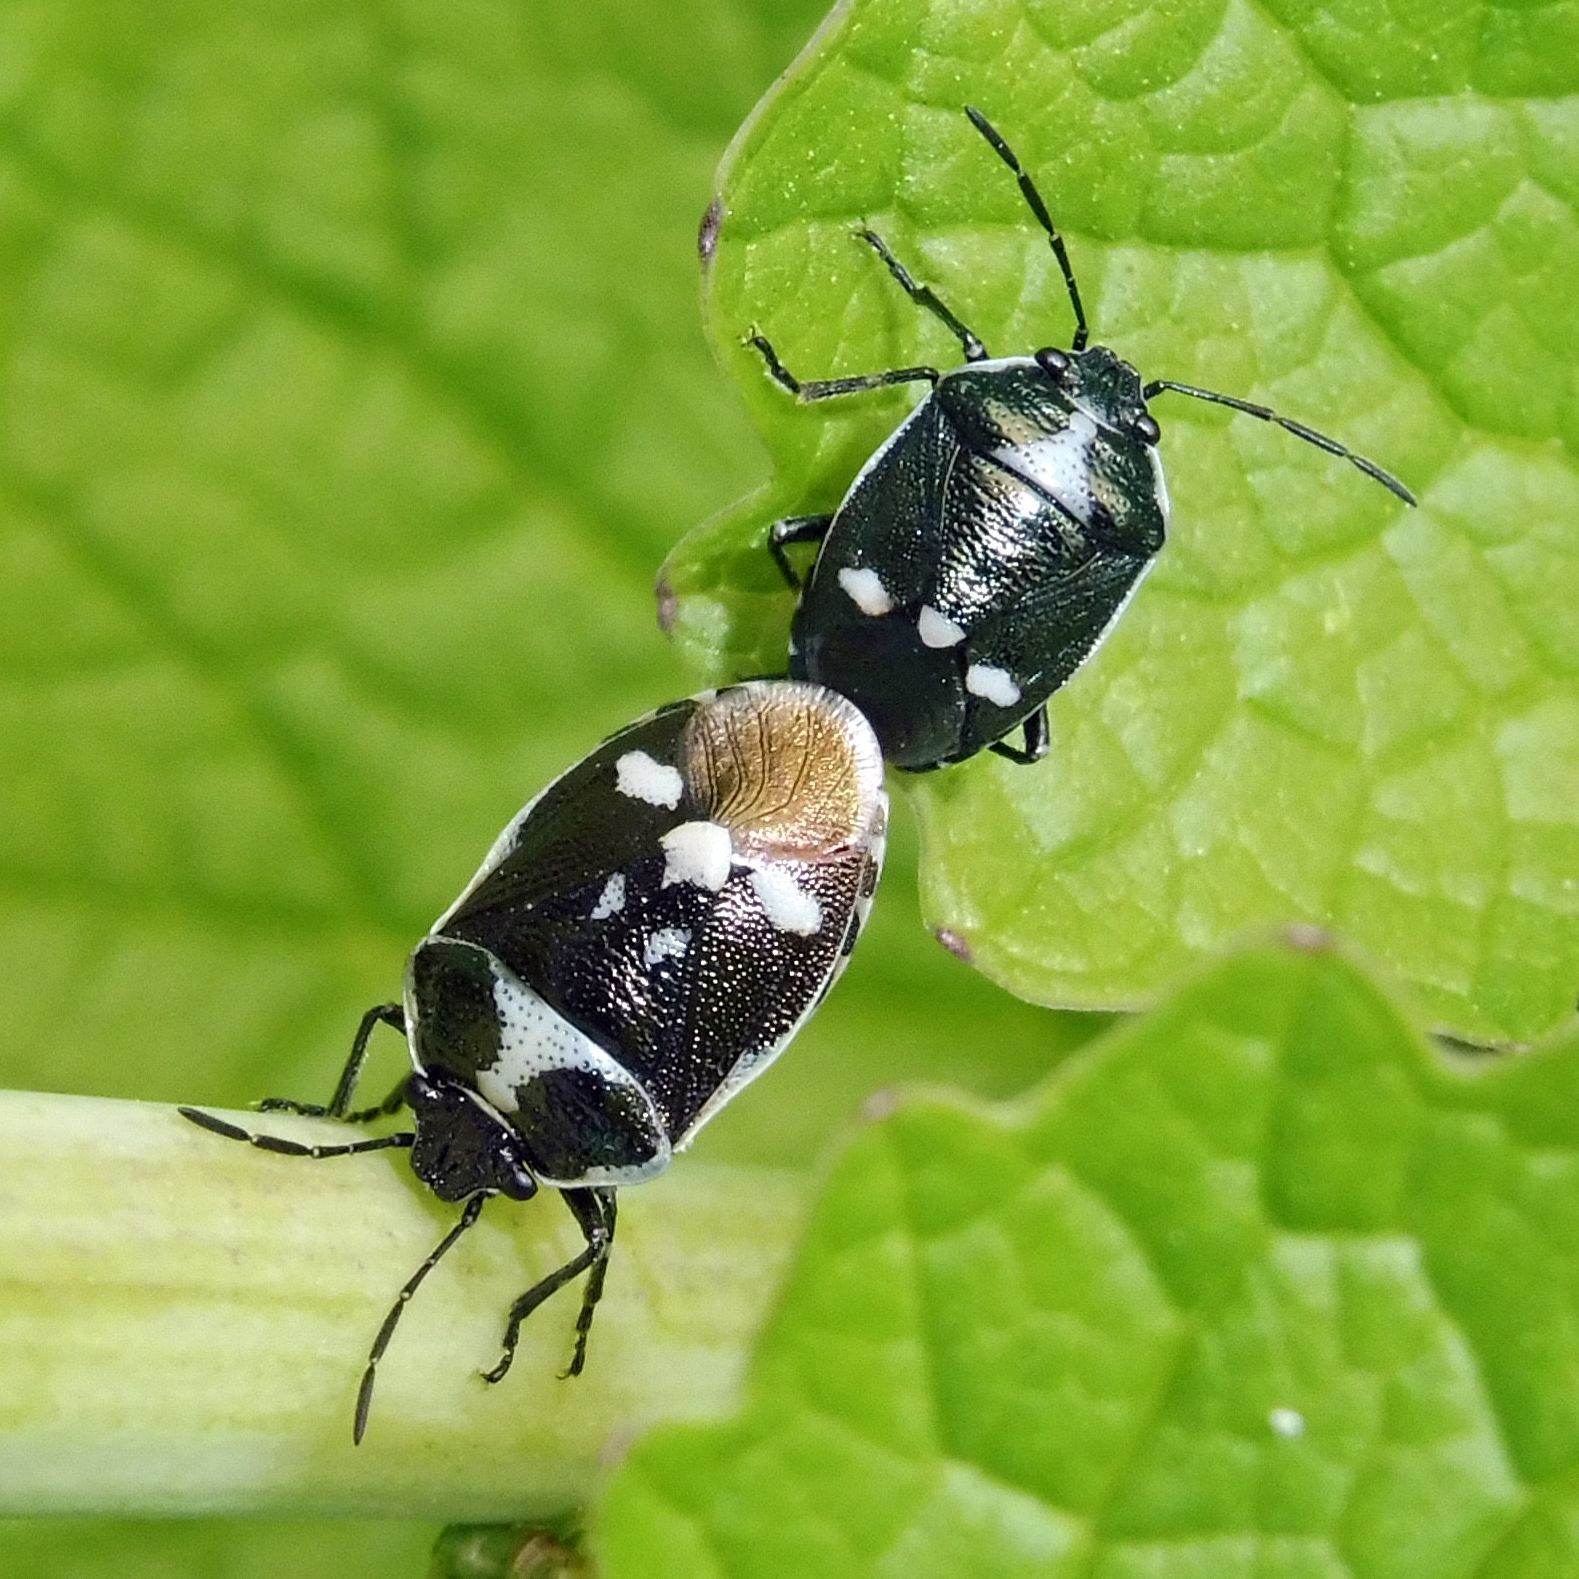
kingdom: Animalia
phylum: Arthropoda
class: Insecta
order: Hemiptera
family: Pentatomidae
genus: Eurydema
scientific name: Eurydema oleracea
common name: Cabbage bug
